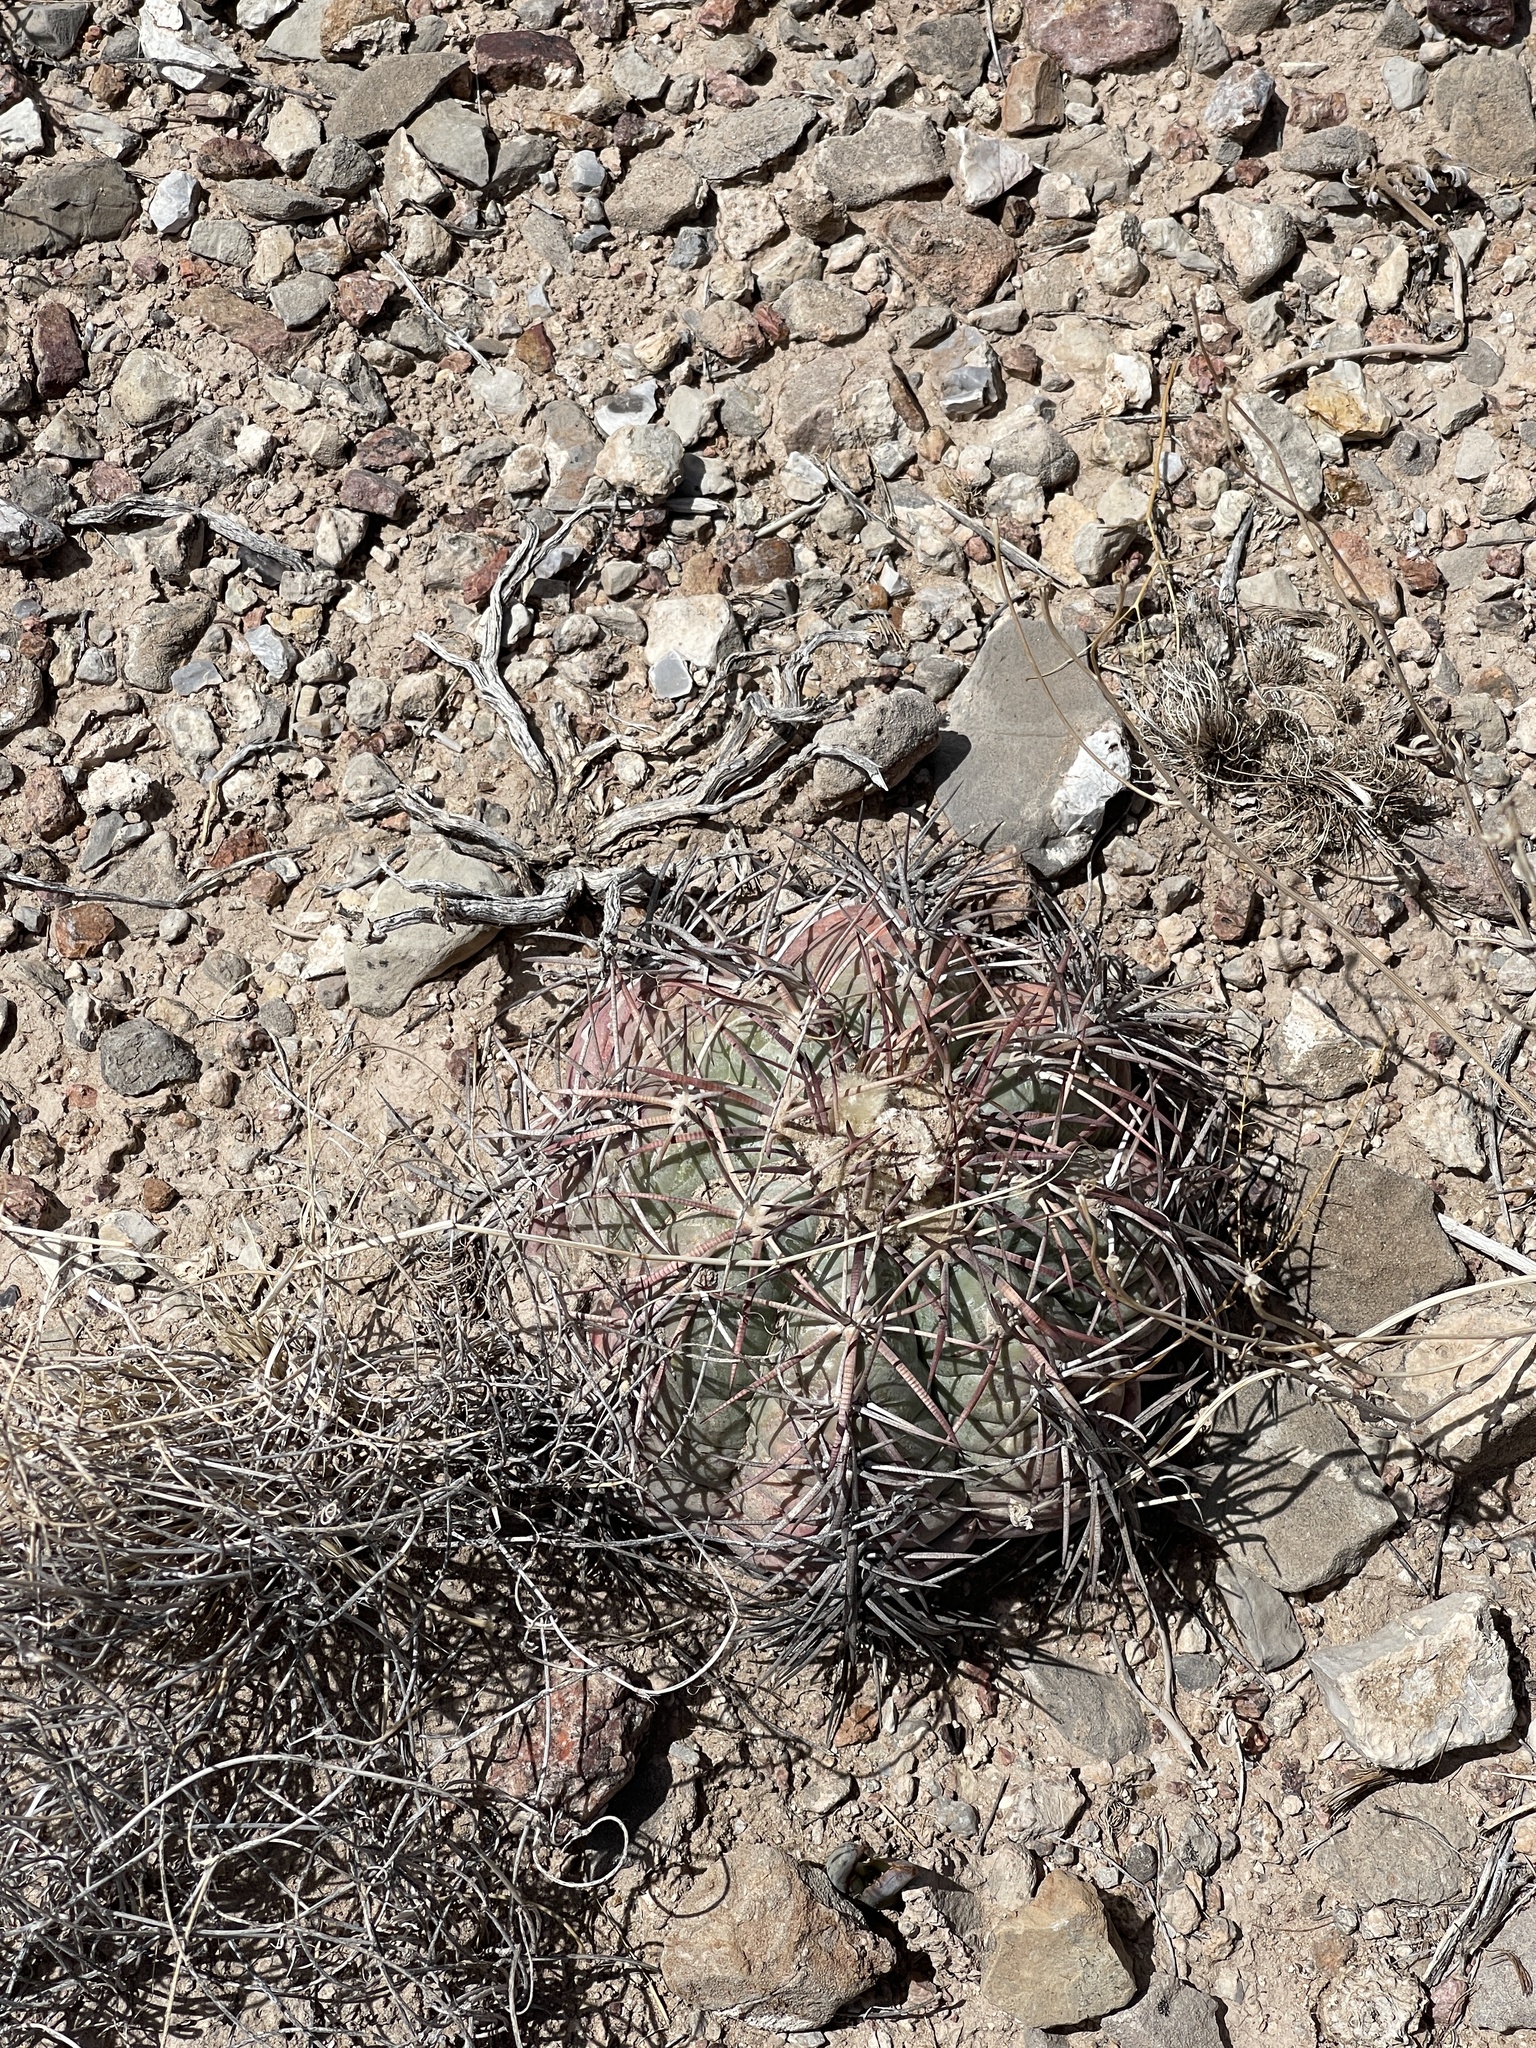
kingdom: Plantae
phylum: Tracheophyta
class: Magnoliopsida
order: Caryophyllales
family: Cactaceae
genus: Echinocactus
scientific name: Echinocactus horizonthalonius
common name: Devilshead
